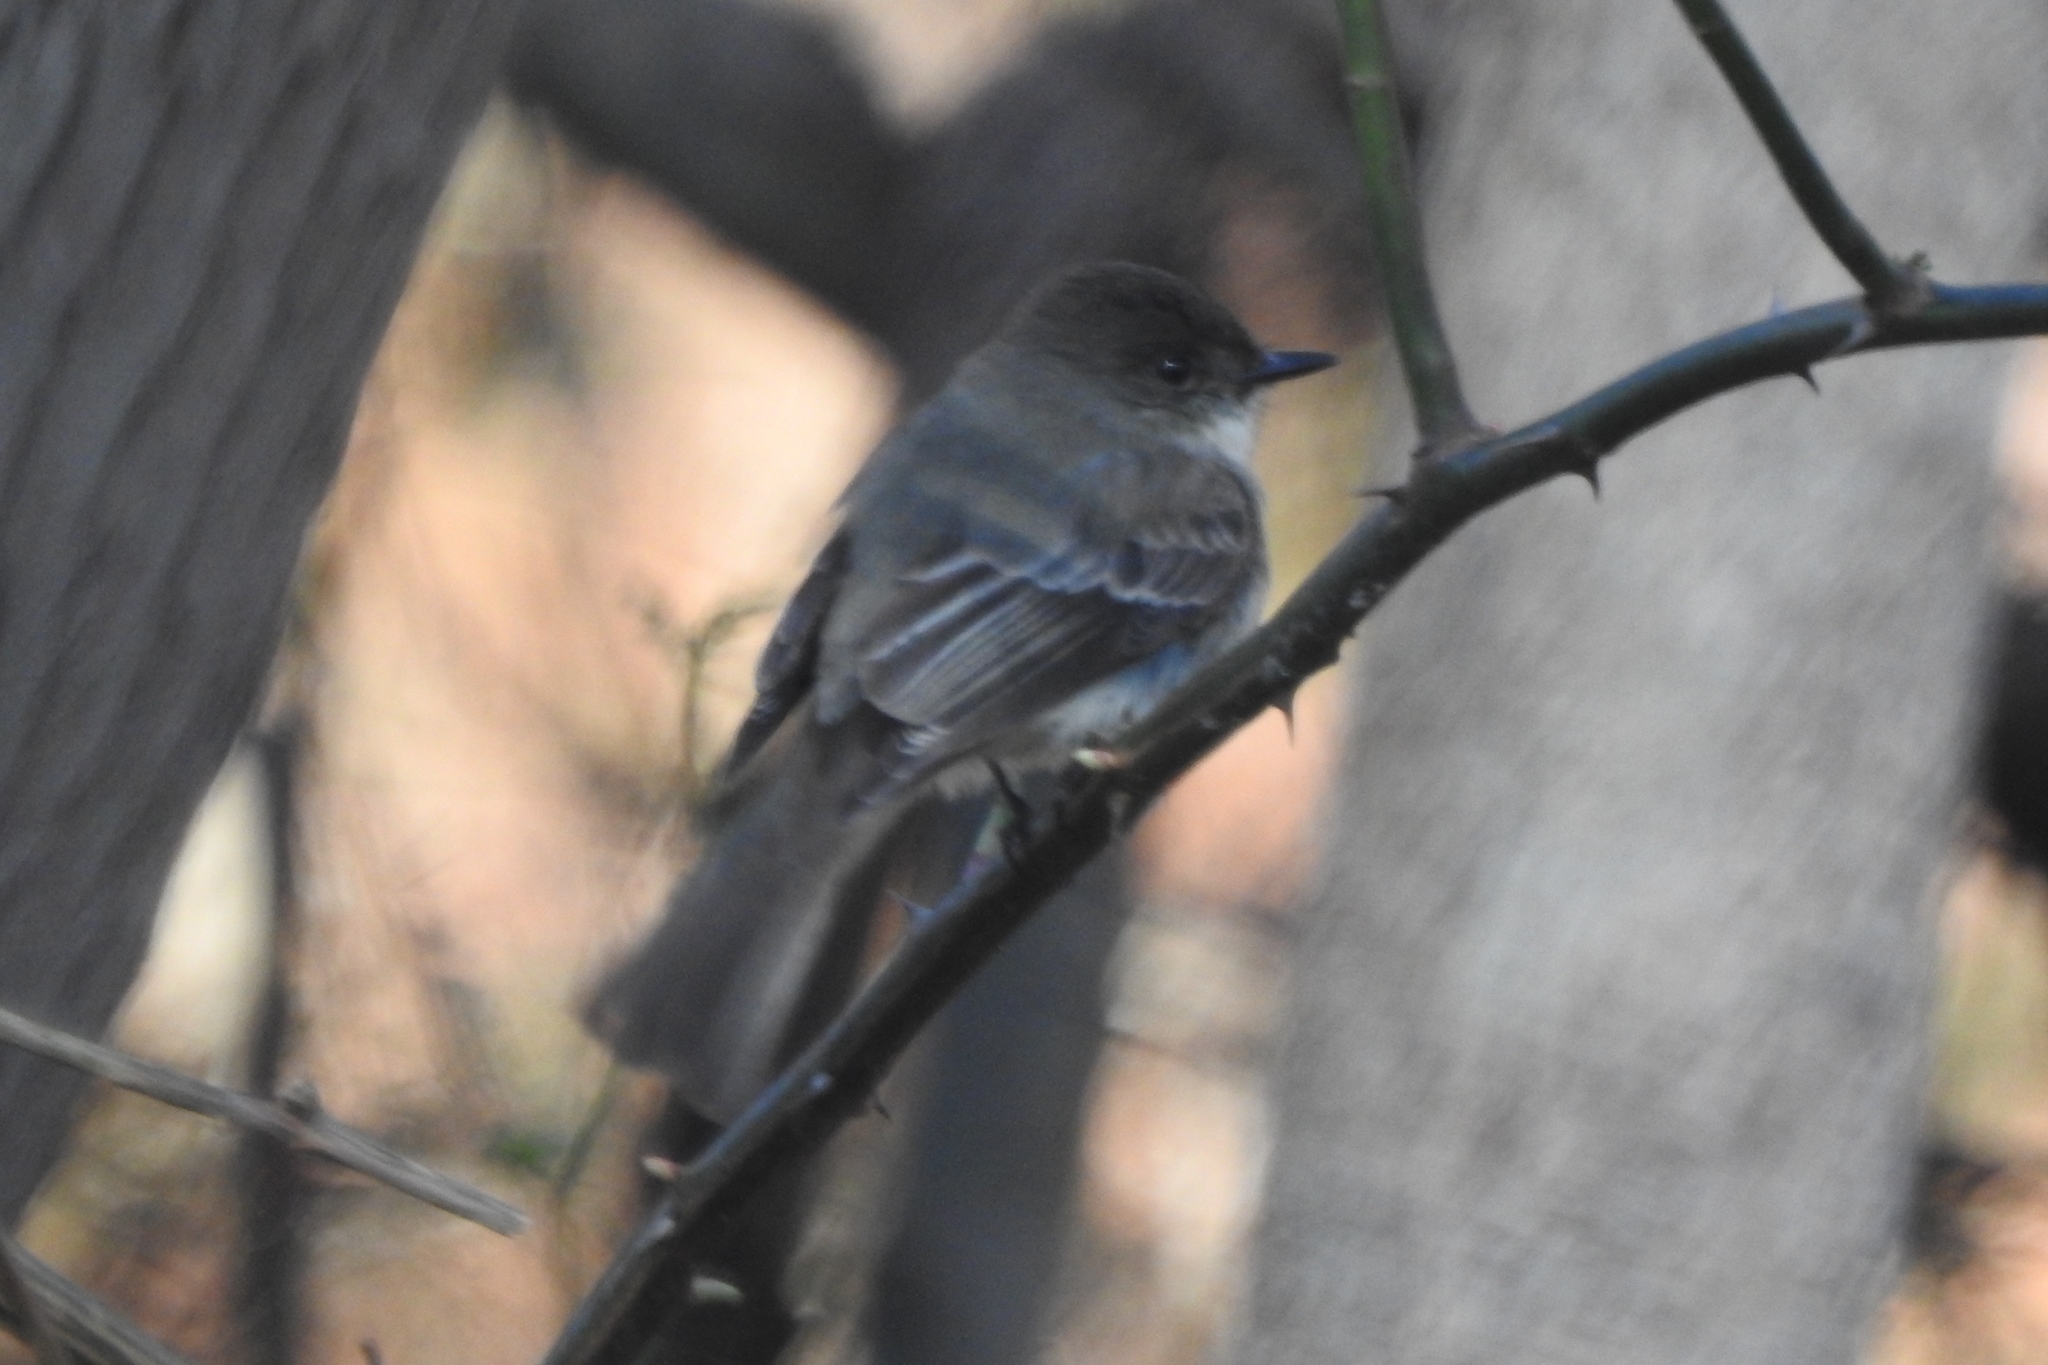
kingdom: Animalia
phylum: Chordata
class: Aves
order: Passeriformes
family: Tyrannidae
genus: Sayornis
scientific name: Sayornis phoebe
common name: Eastern phoebe
